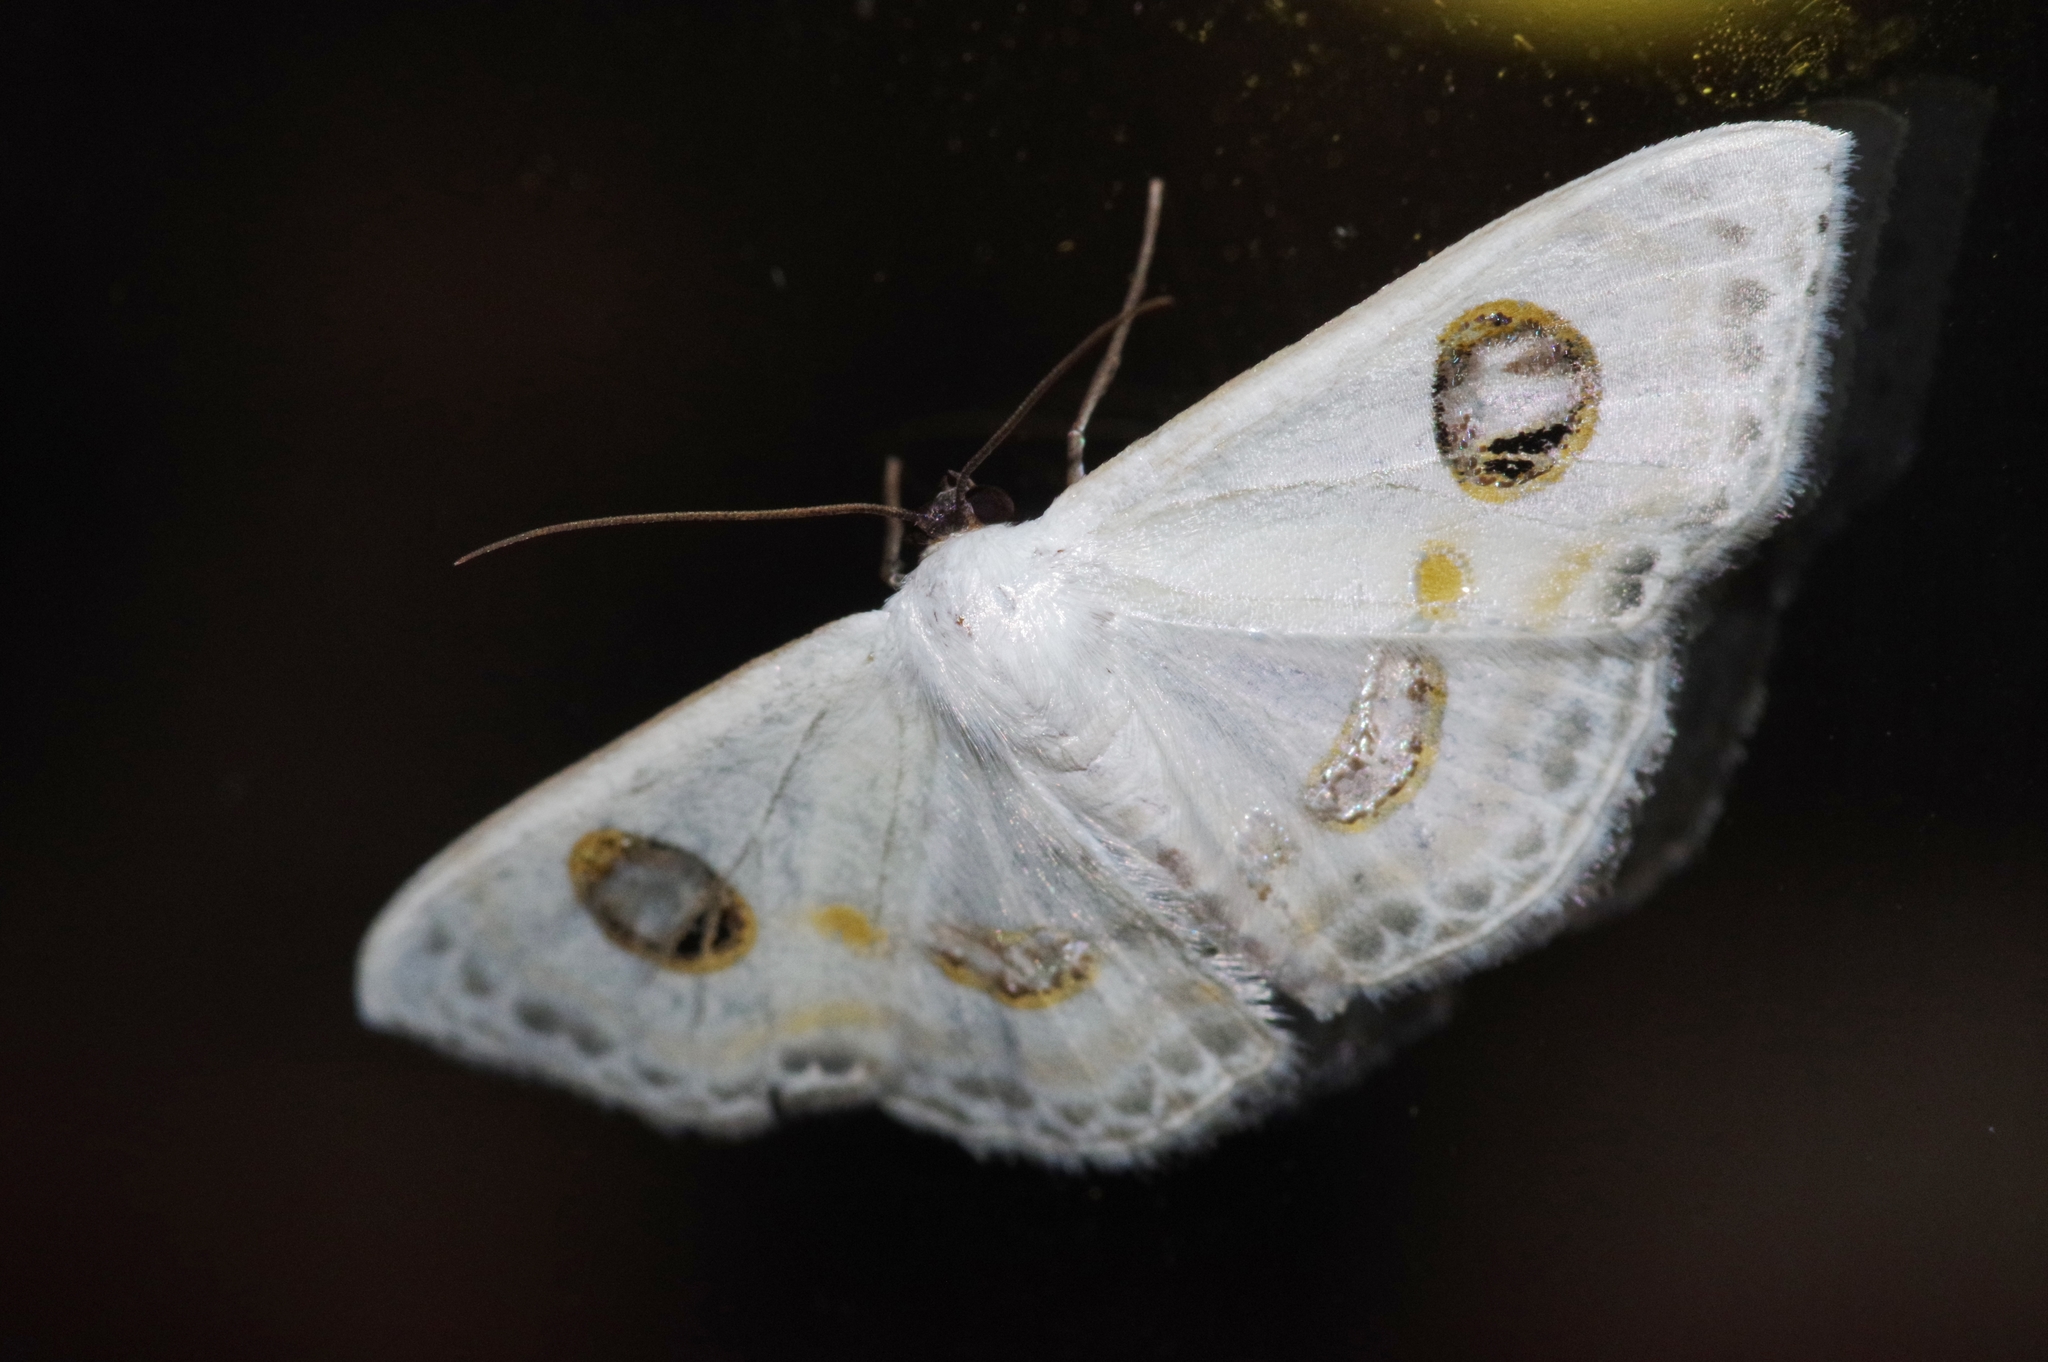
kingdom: Animalia
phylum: Arthropoda
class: Insecta
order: Lepidoptera
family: Geometridae
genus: Problepsis
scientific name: Problepsis albidior
